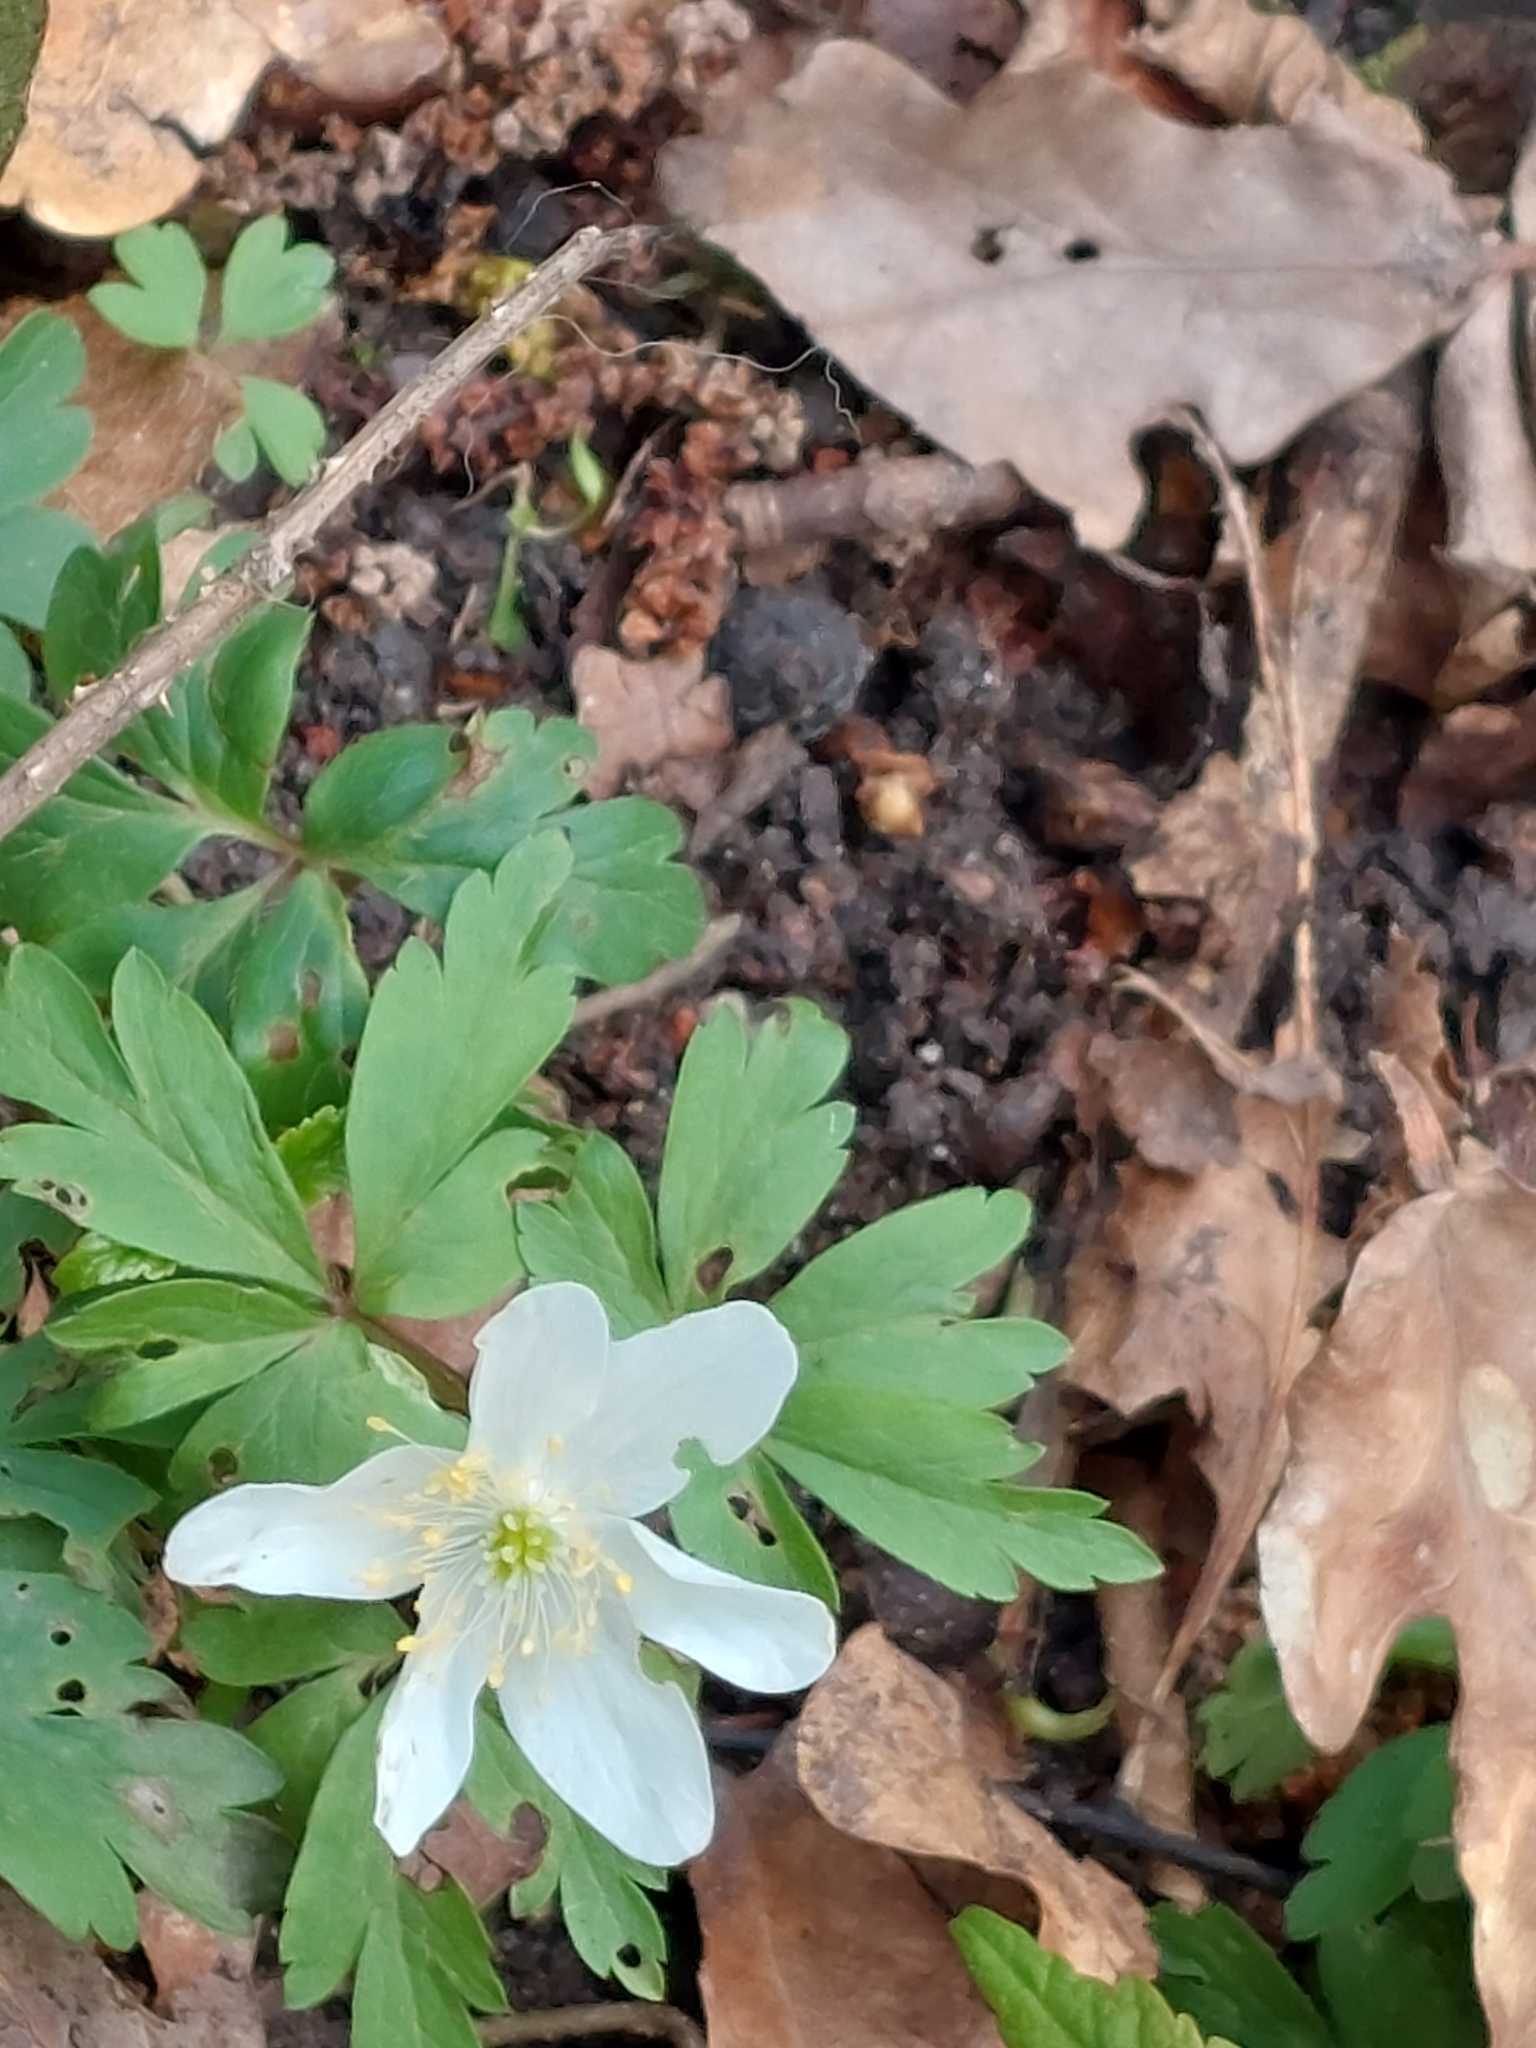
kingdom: Plantae
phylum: Tracheophyta
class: Magnoliopsida
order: Ranunculales
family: Ranunculaceae
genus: Anemone
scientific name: Anemone nemorosa
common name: Wood anemone
